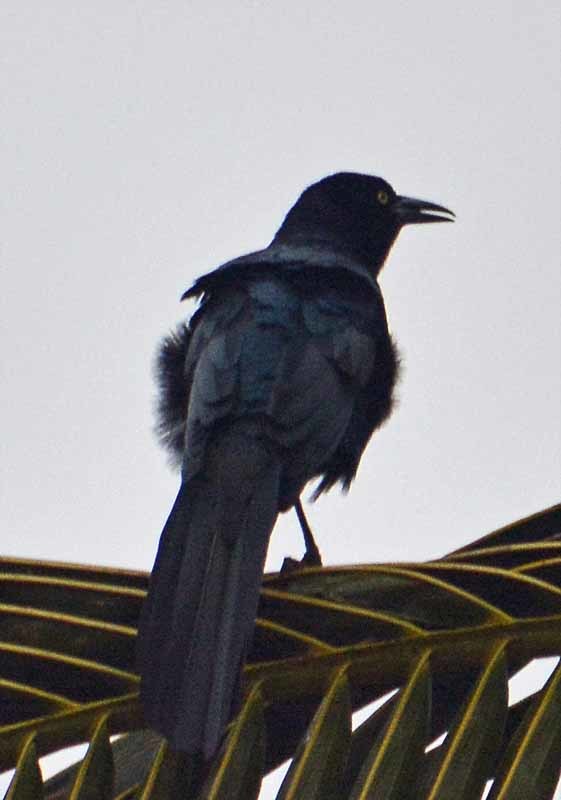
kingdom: Animalia
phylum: Chordata
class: Aves
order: Passeriformes
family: Icteridae
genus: Quiscalus
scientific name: Quiscalus mexicanus
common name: Great-tailed grackle
